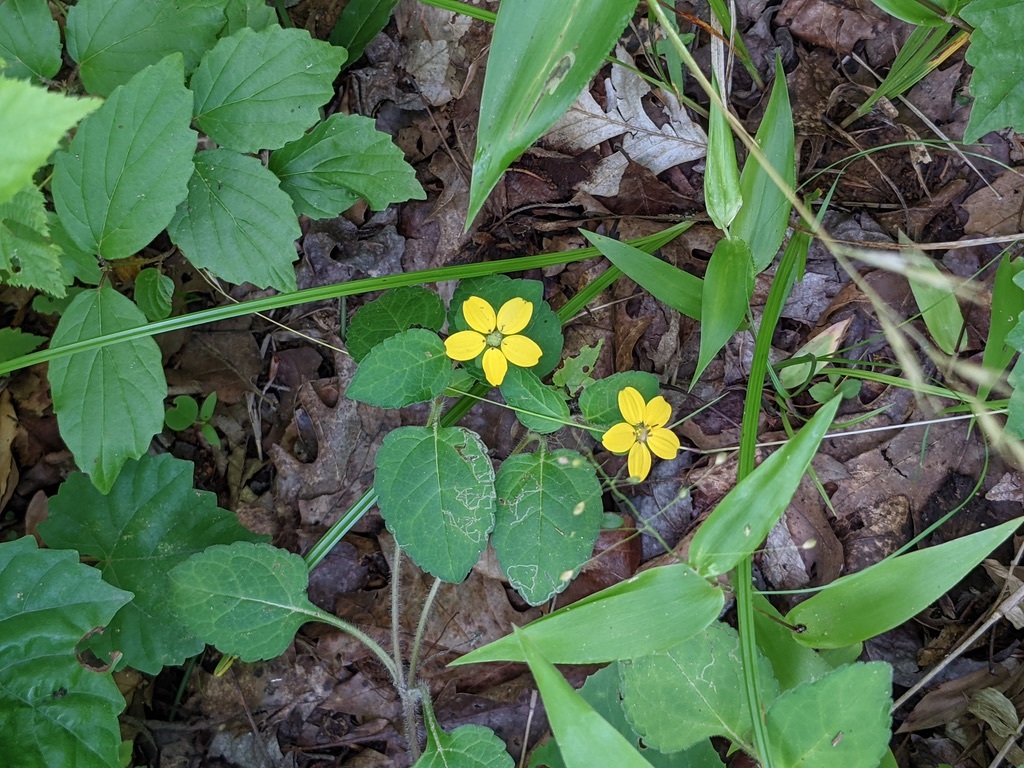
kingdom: Plantae
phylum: Tracheophyta
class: Magnoliopsida
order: Asterales
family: Asteraceae
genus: Chrysogonum
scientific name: Chrysogonum virginianum
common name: Golden-knee
